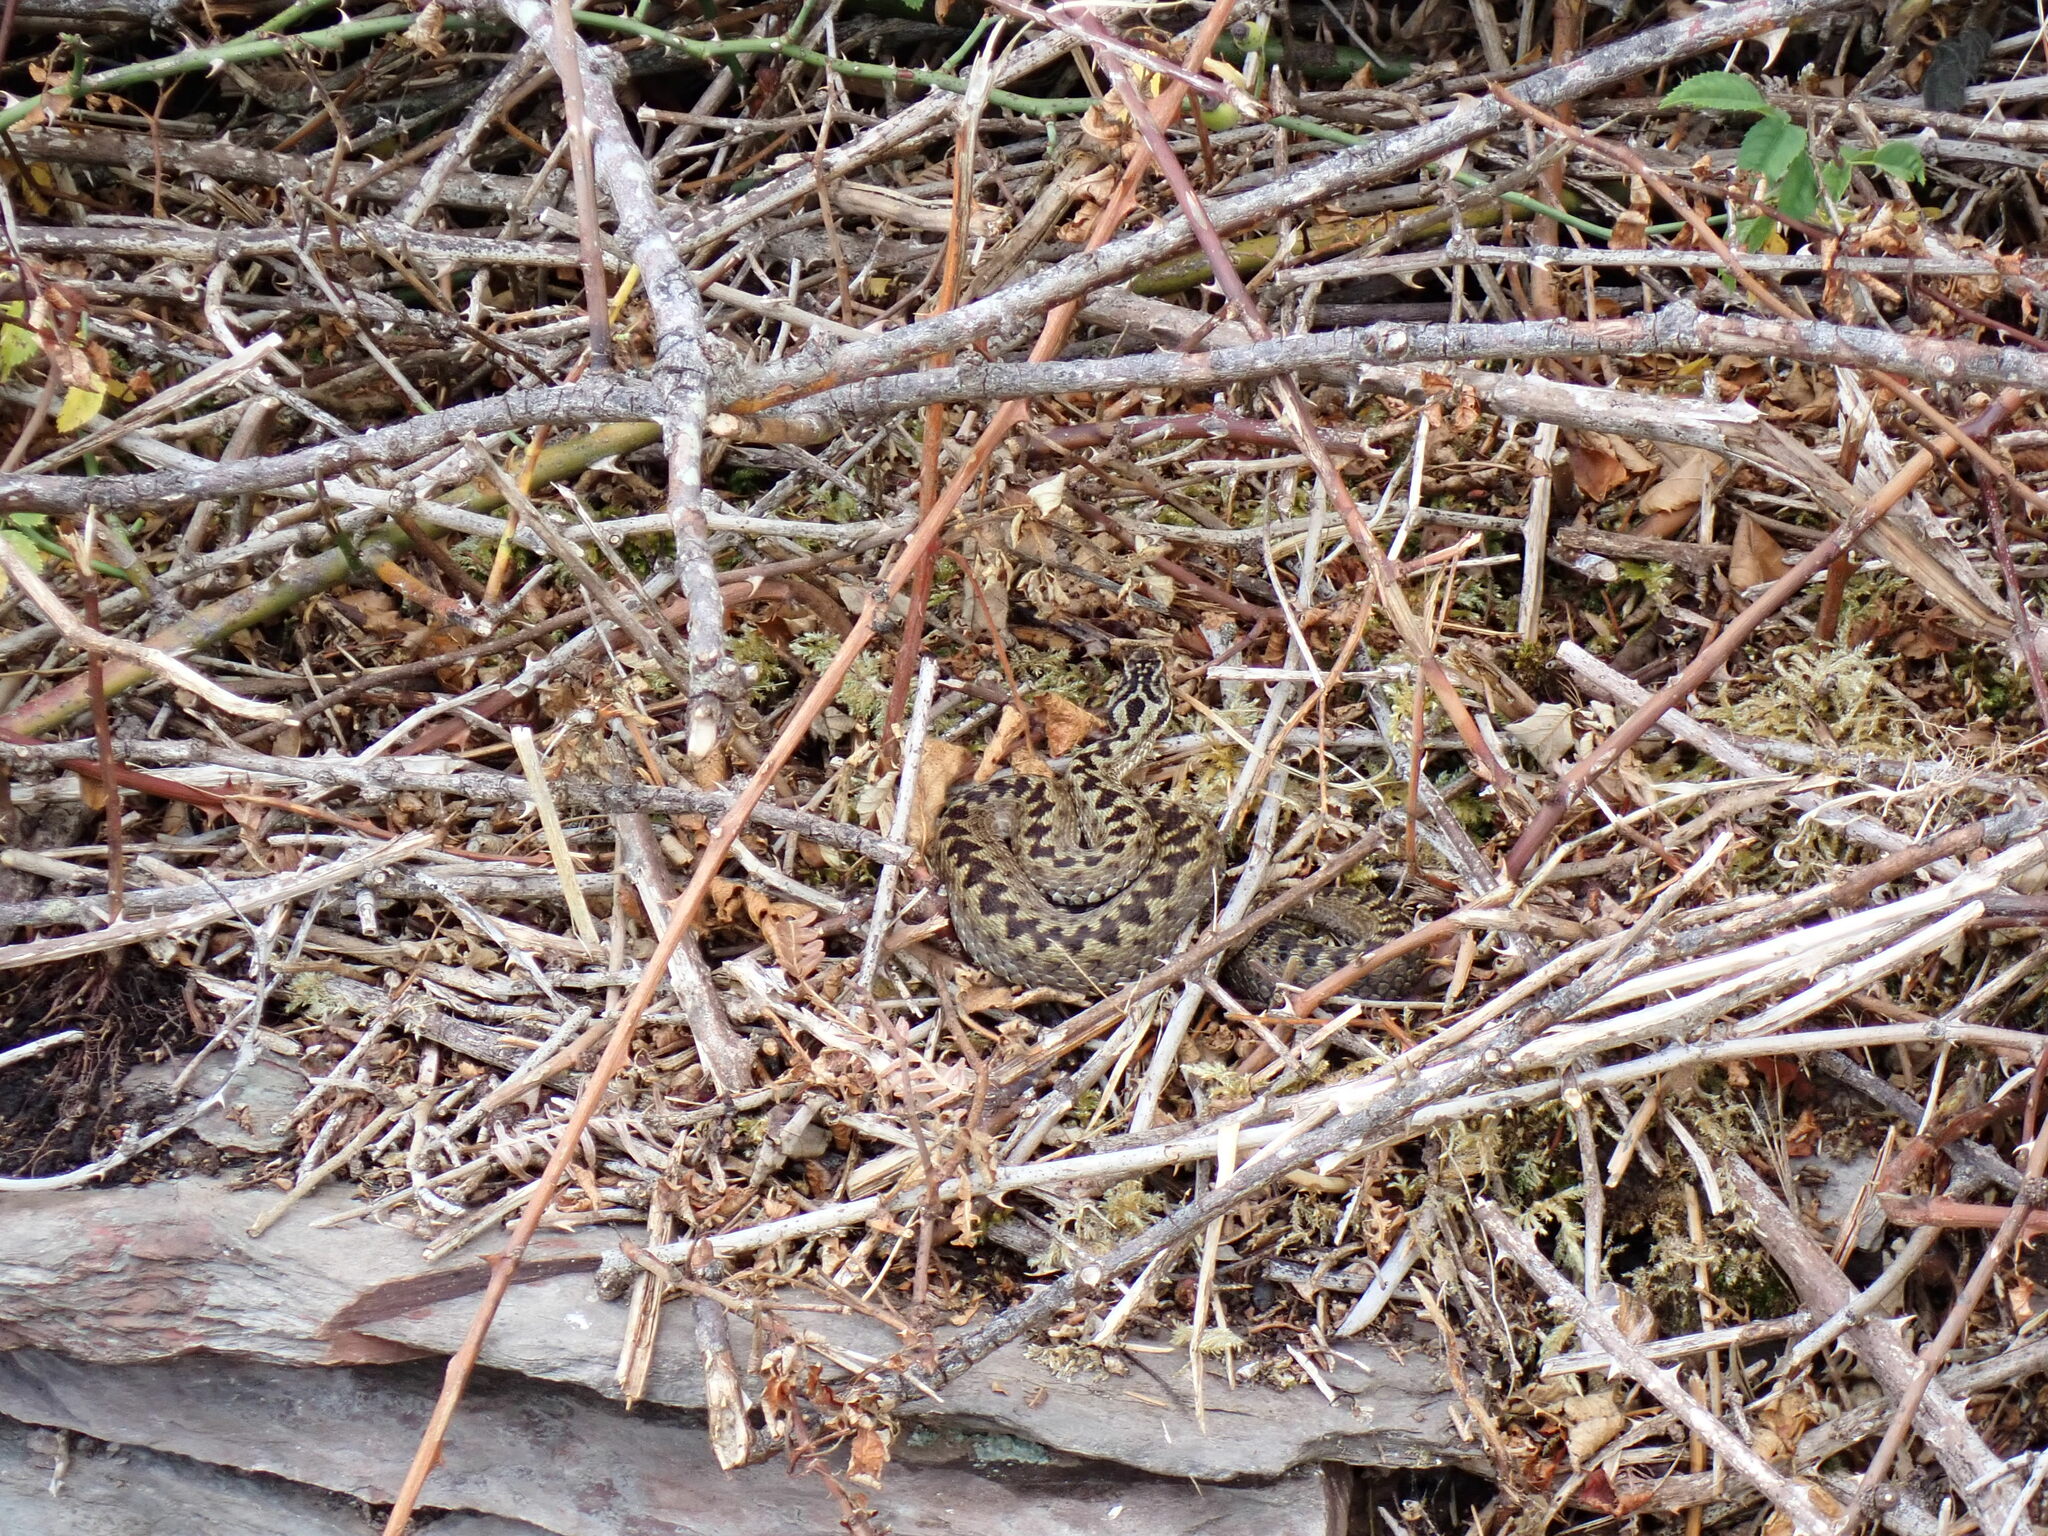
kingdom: Animalia
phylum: Chordata
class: Squamata
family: Viperidae
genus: Vipera
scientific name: Vipera berus
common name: Adder
